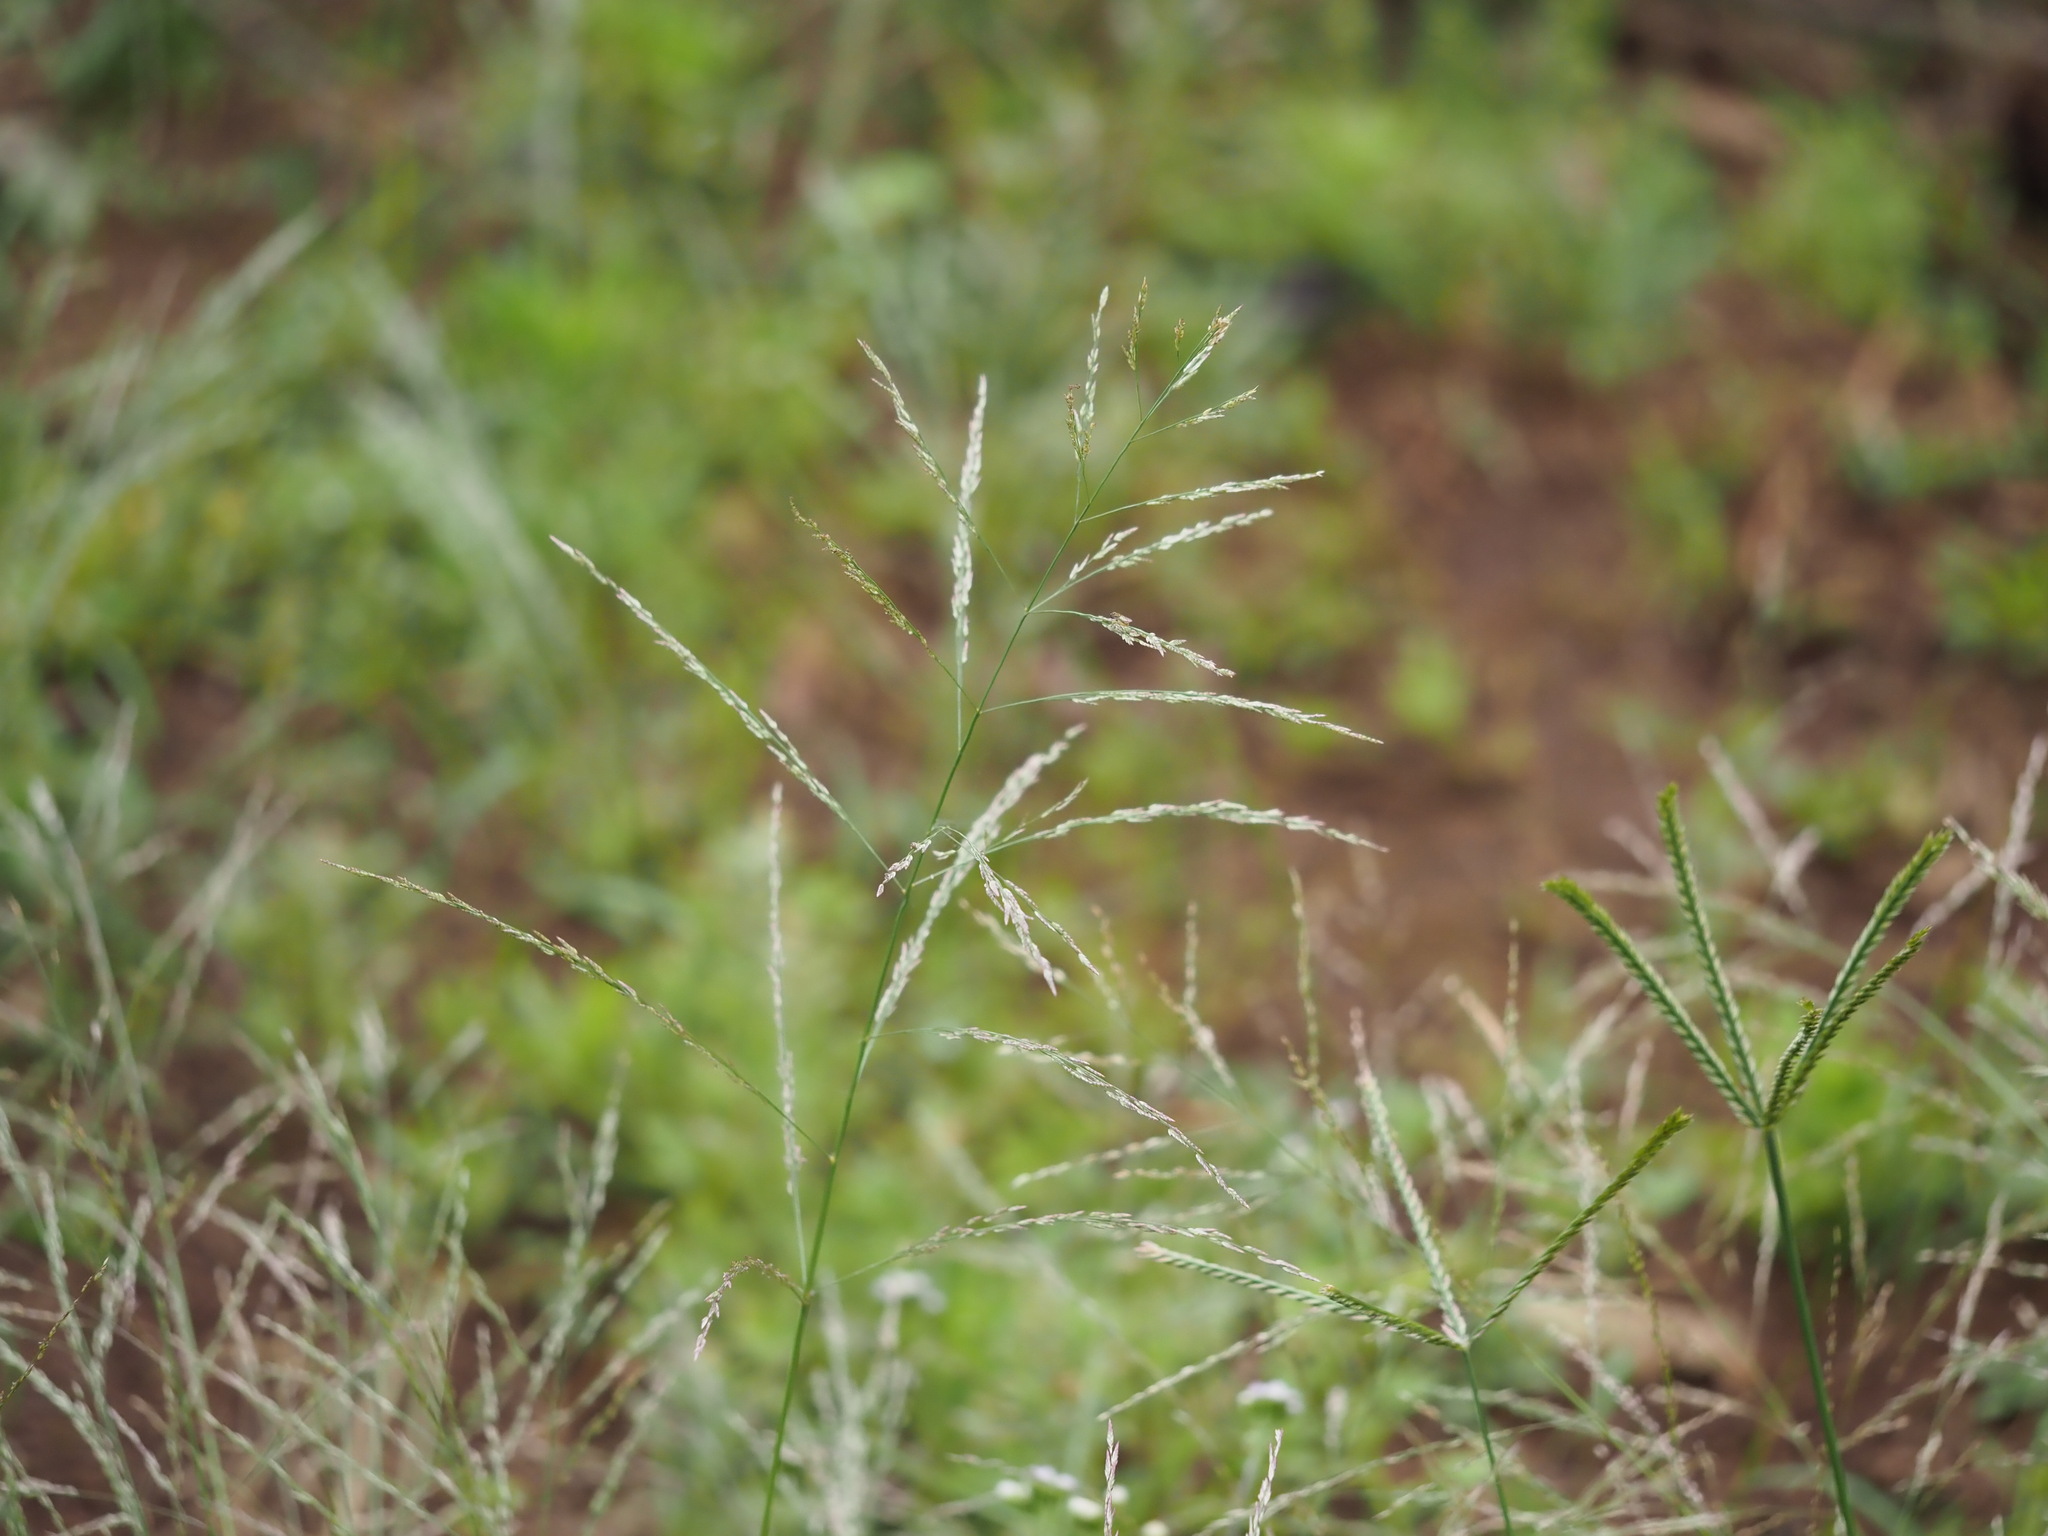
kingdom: Plantae
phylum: Tracheophyta
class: Liliopsida
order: Poales
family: Poaceae
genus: Eragrostis
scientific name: Eragrostis pectinacea
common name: Tufted lovegrass
